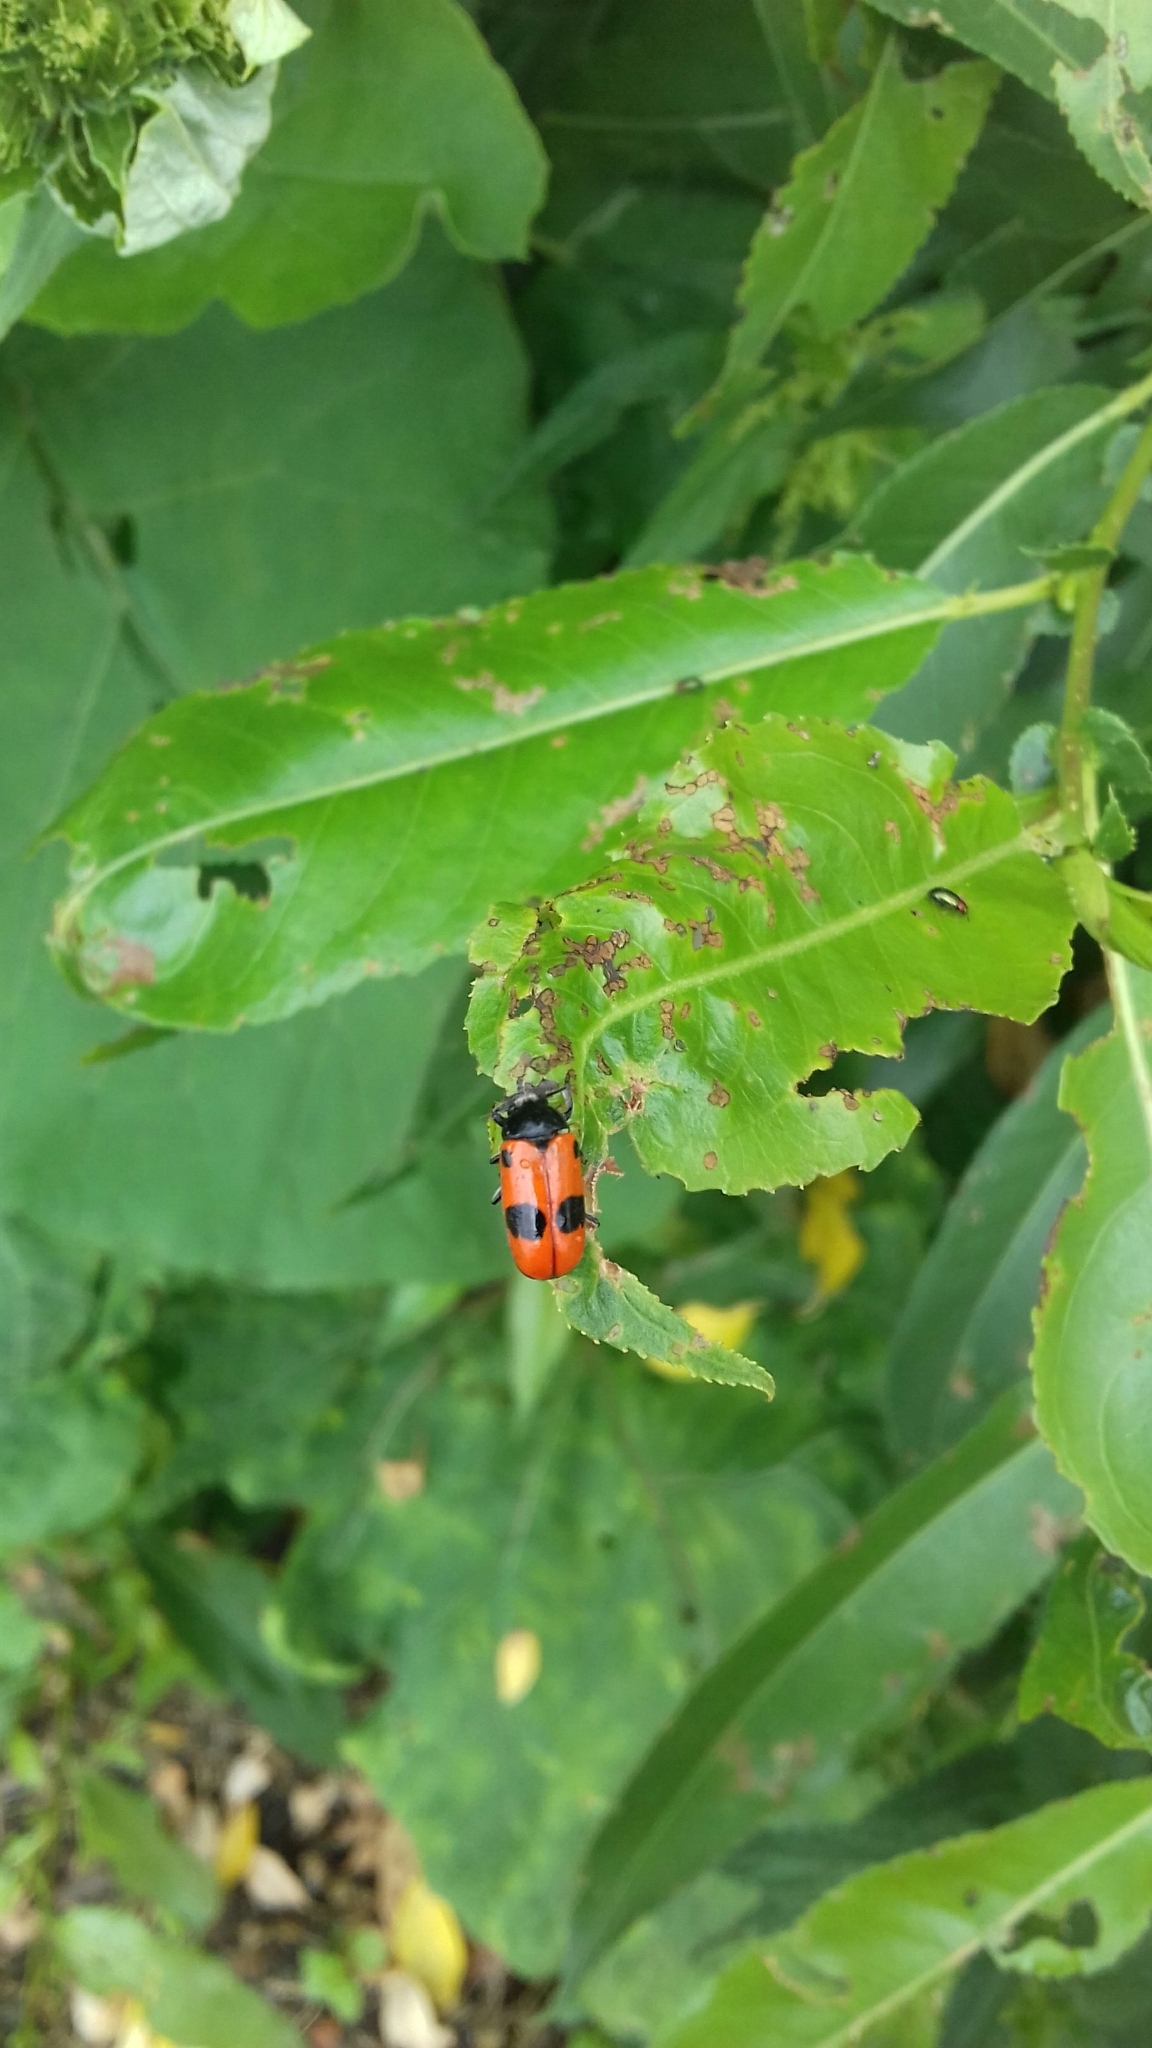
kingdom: Animalia
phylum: Arthropoda
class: Insecta
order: Coleoptera
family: Chrysomelidae
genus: Clytra
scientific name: Clytra laeviuscula
